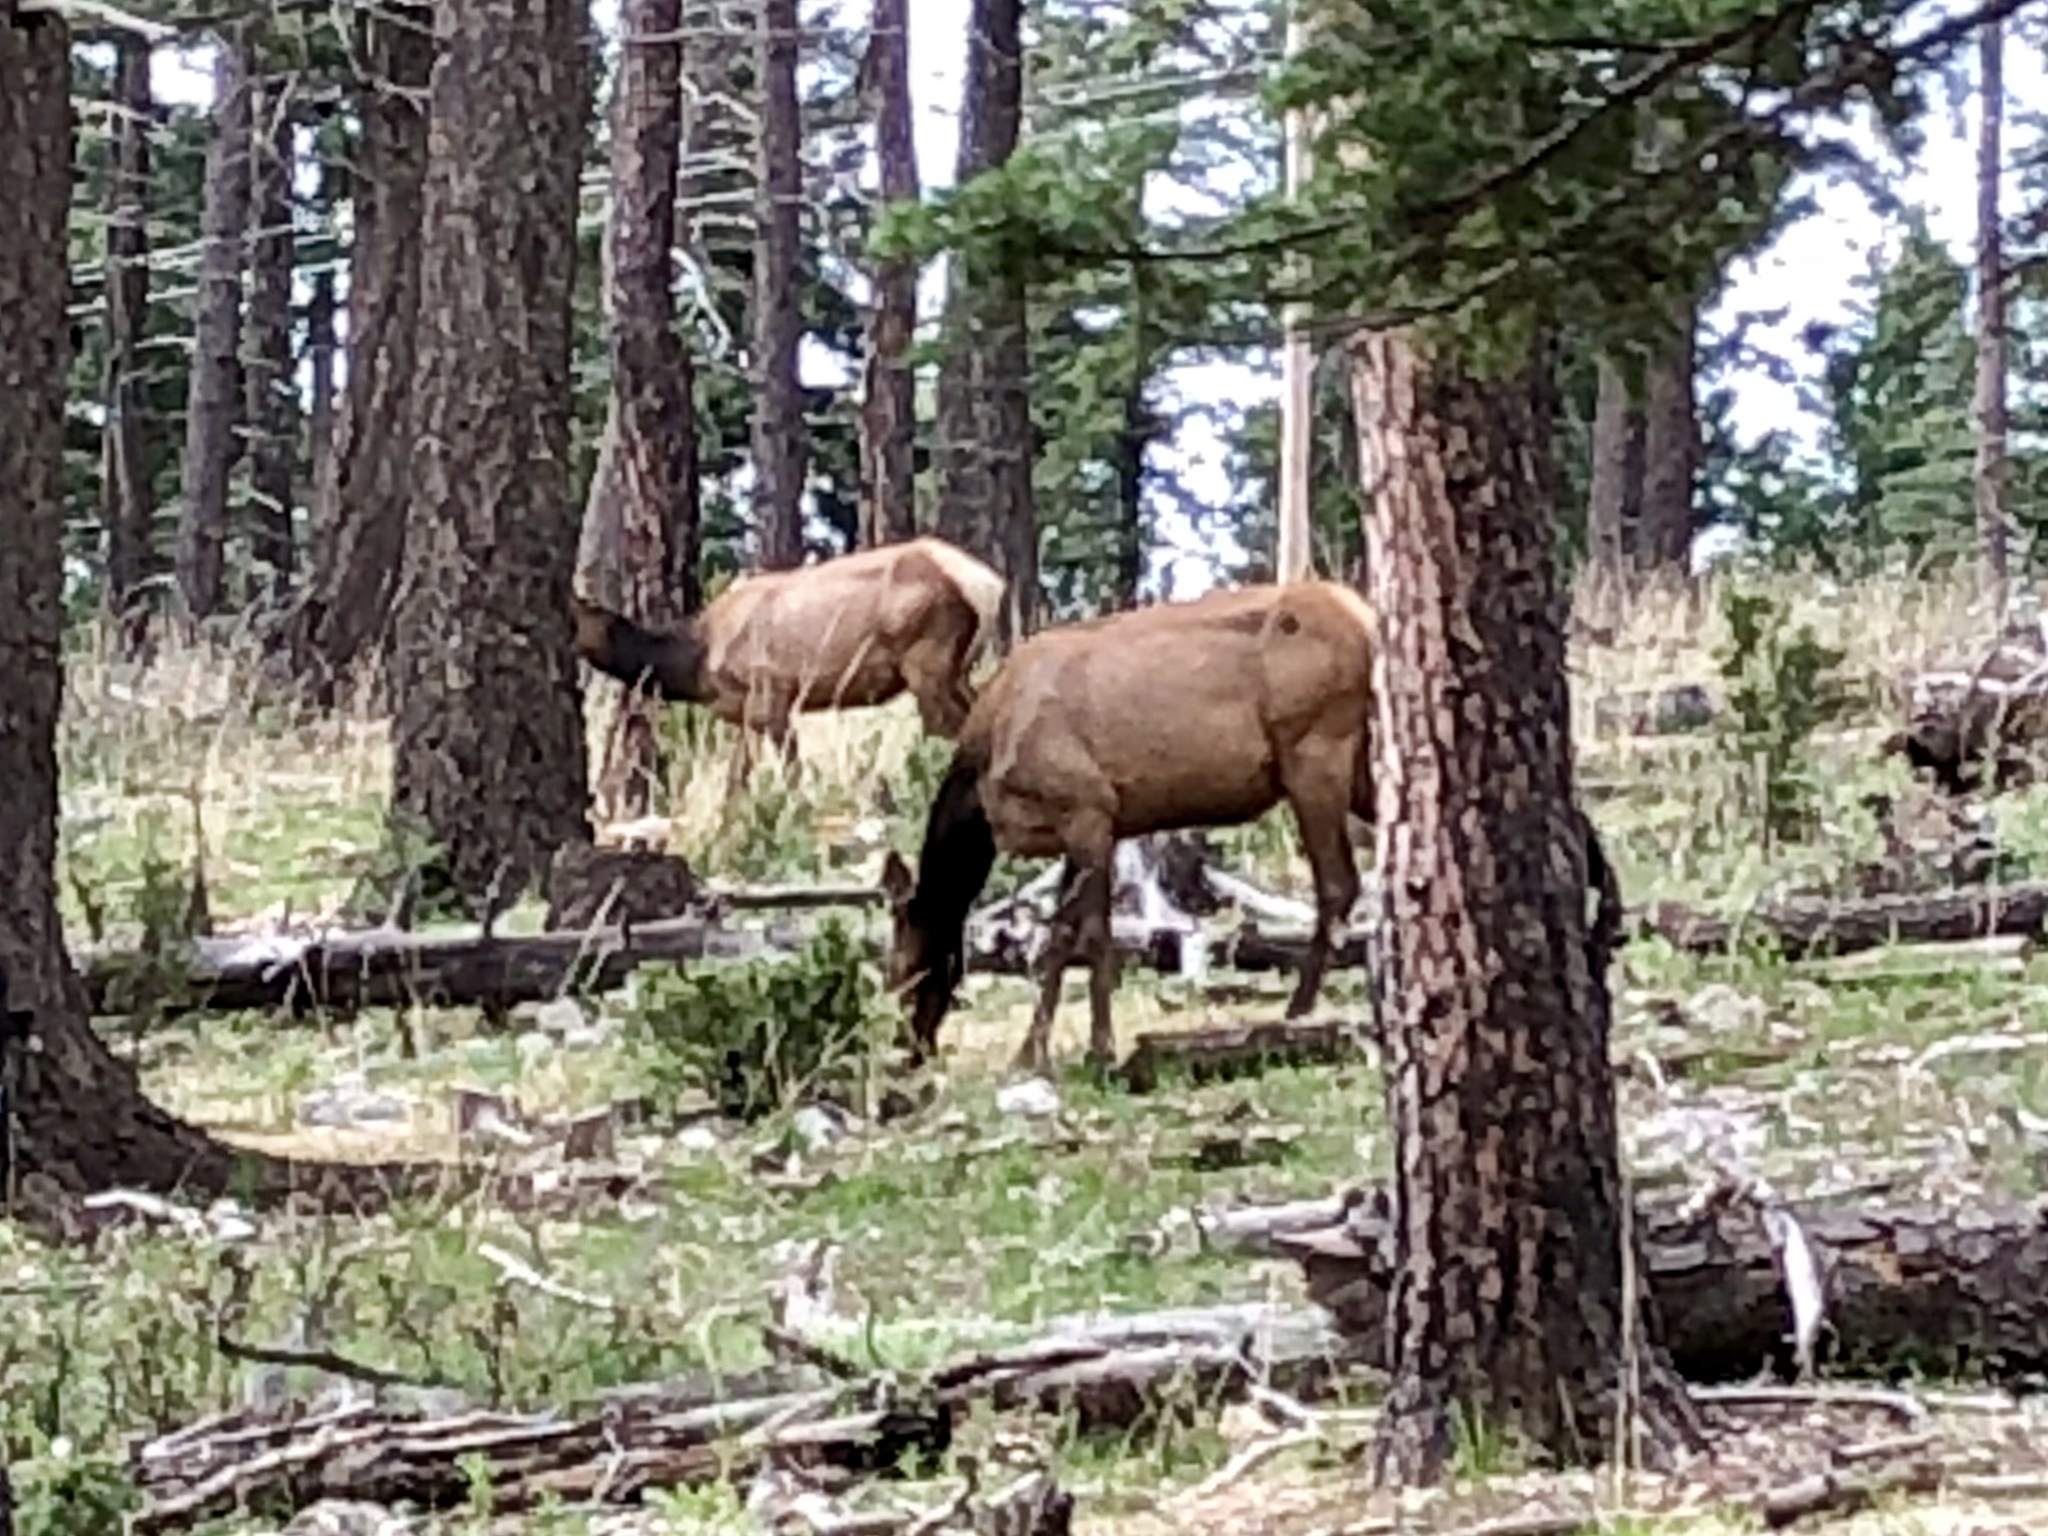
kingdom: Animalia
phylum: Chordata
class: Mammalia
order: Artiodactyla
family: Cervidae
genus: Cervus
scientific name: Cervus elaphus
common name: Red deer
